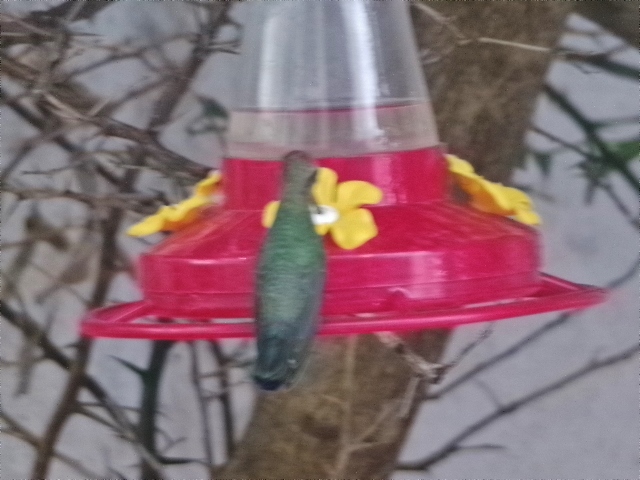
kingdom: Animalia
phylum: Chordata
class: Aves
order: Apodiformes
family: Trochilidae
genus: Cynanthus
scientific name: Cynanthus latirostris
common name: Broad-billed hummingbird
